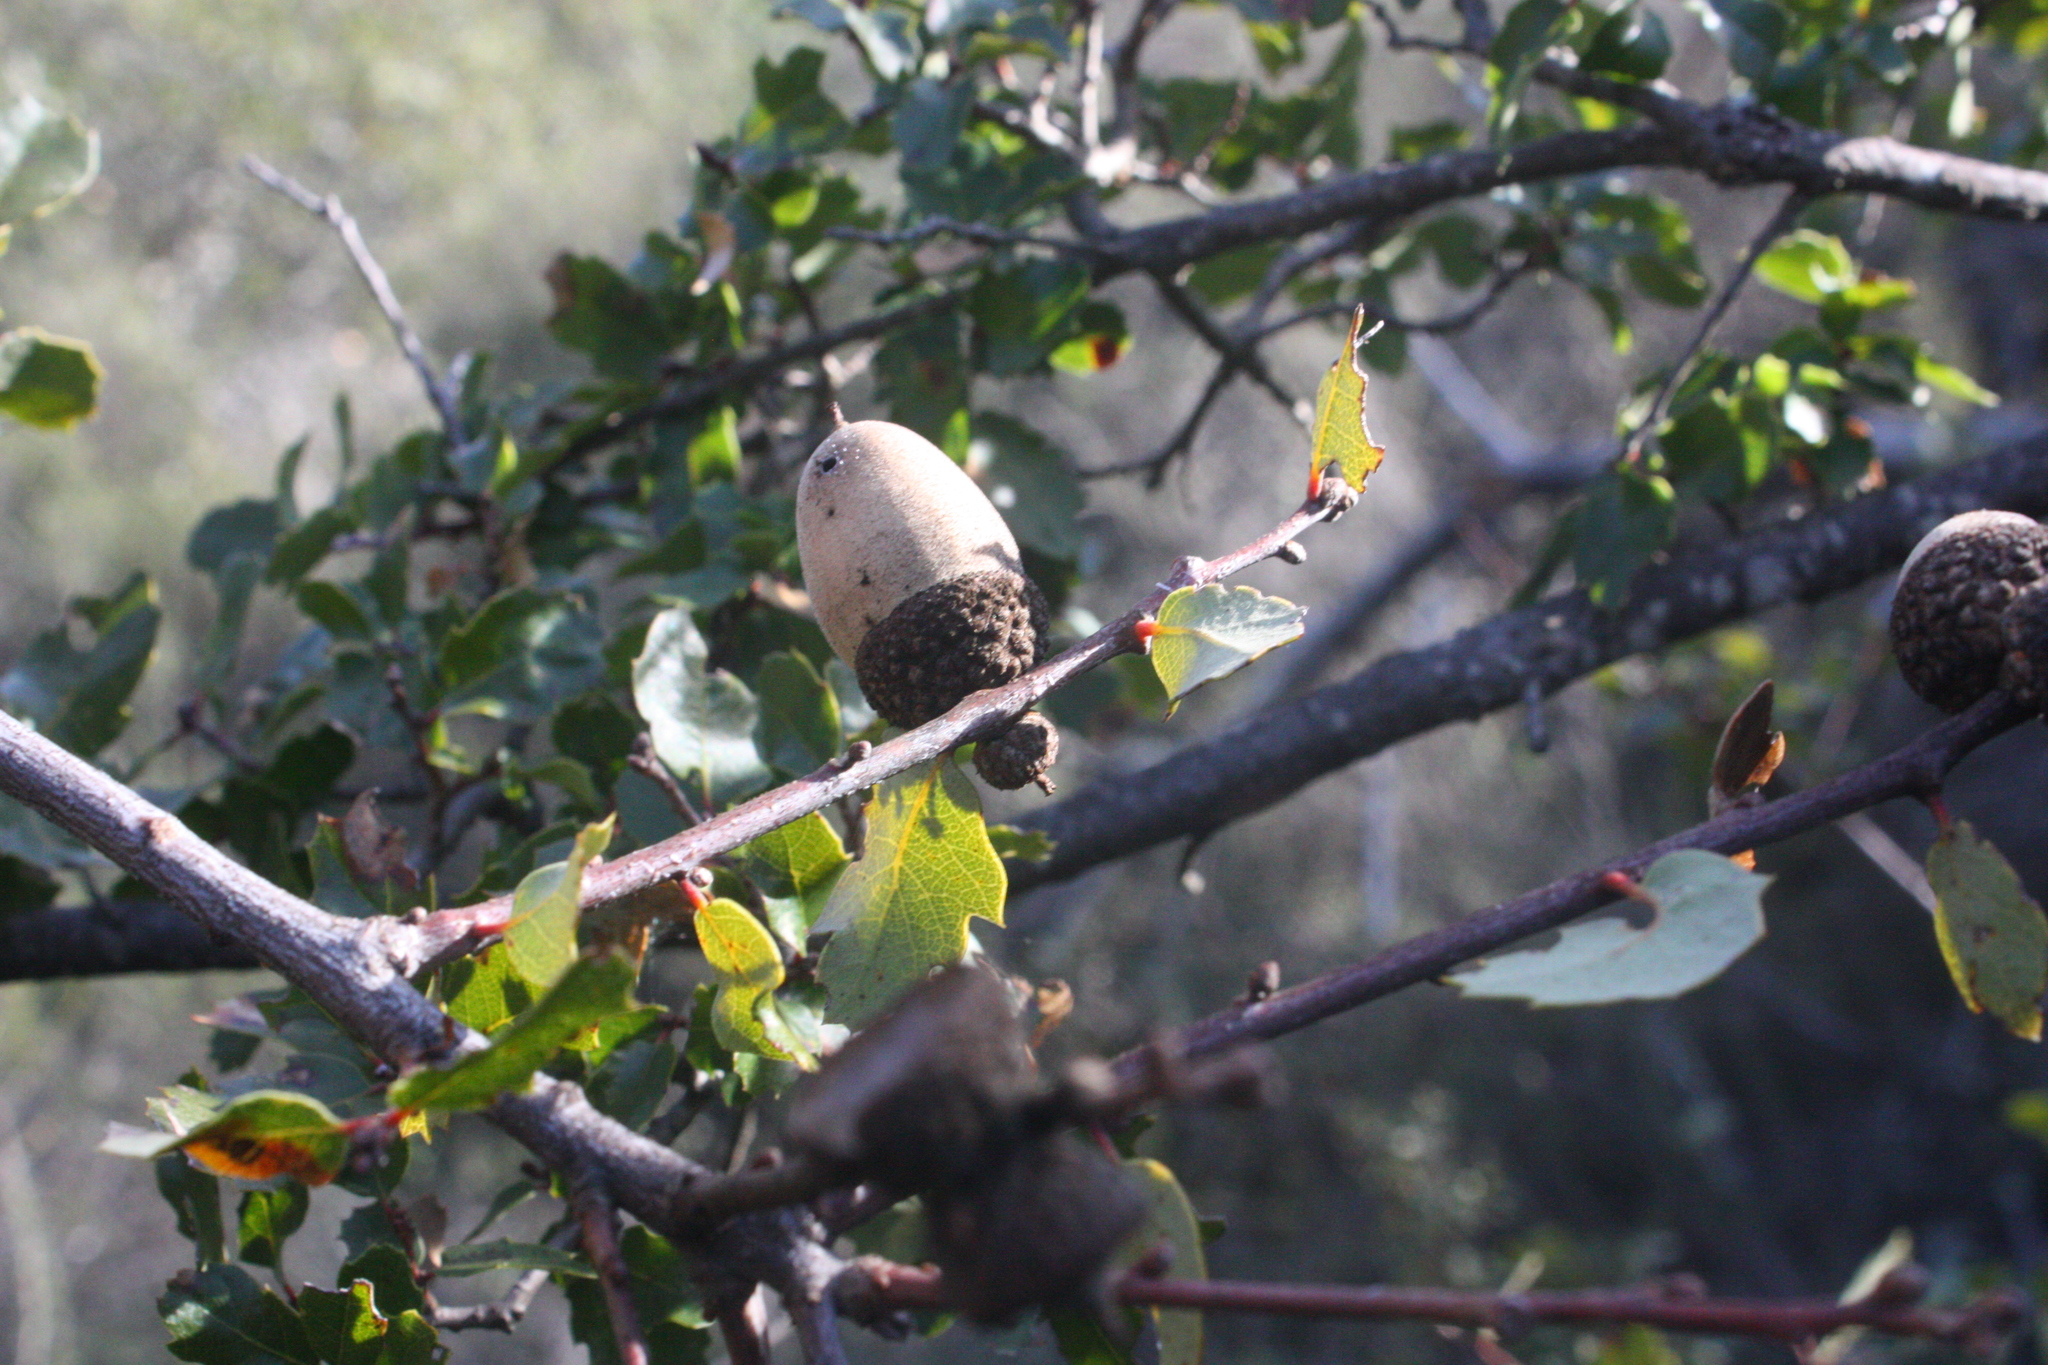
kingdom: Plantae
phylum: Tracheophyta
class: Magnoliopsida
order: Fagales
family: Fagaceae
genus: Quercus
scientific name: Quercus berberidifolia
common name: California scrub oak
